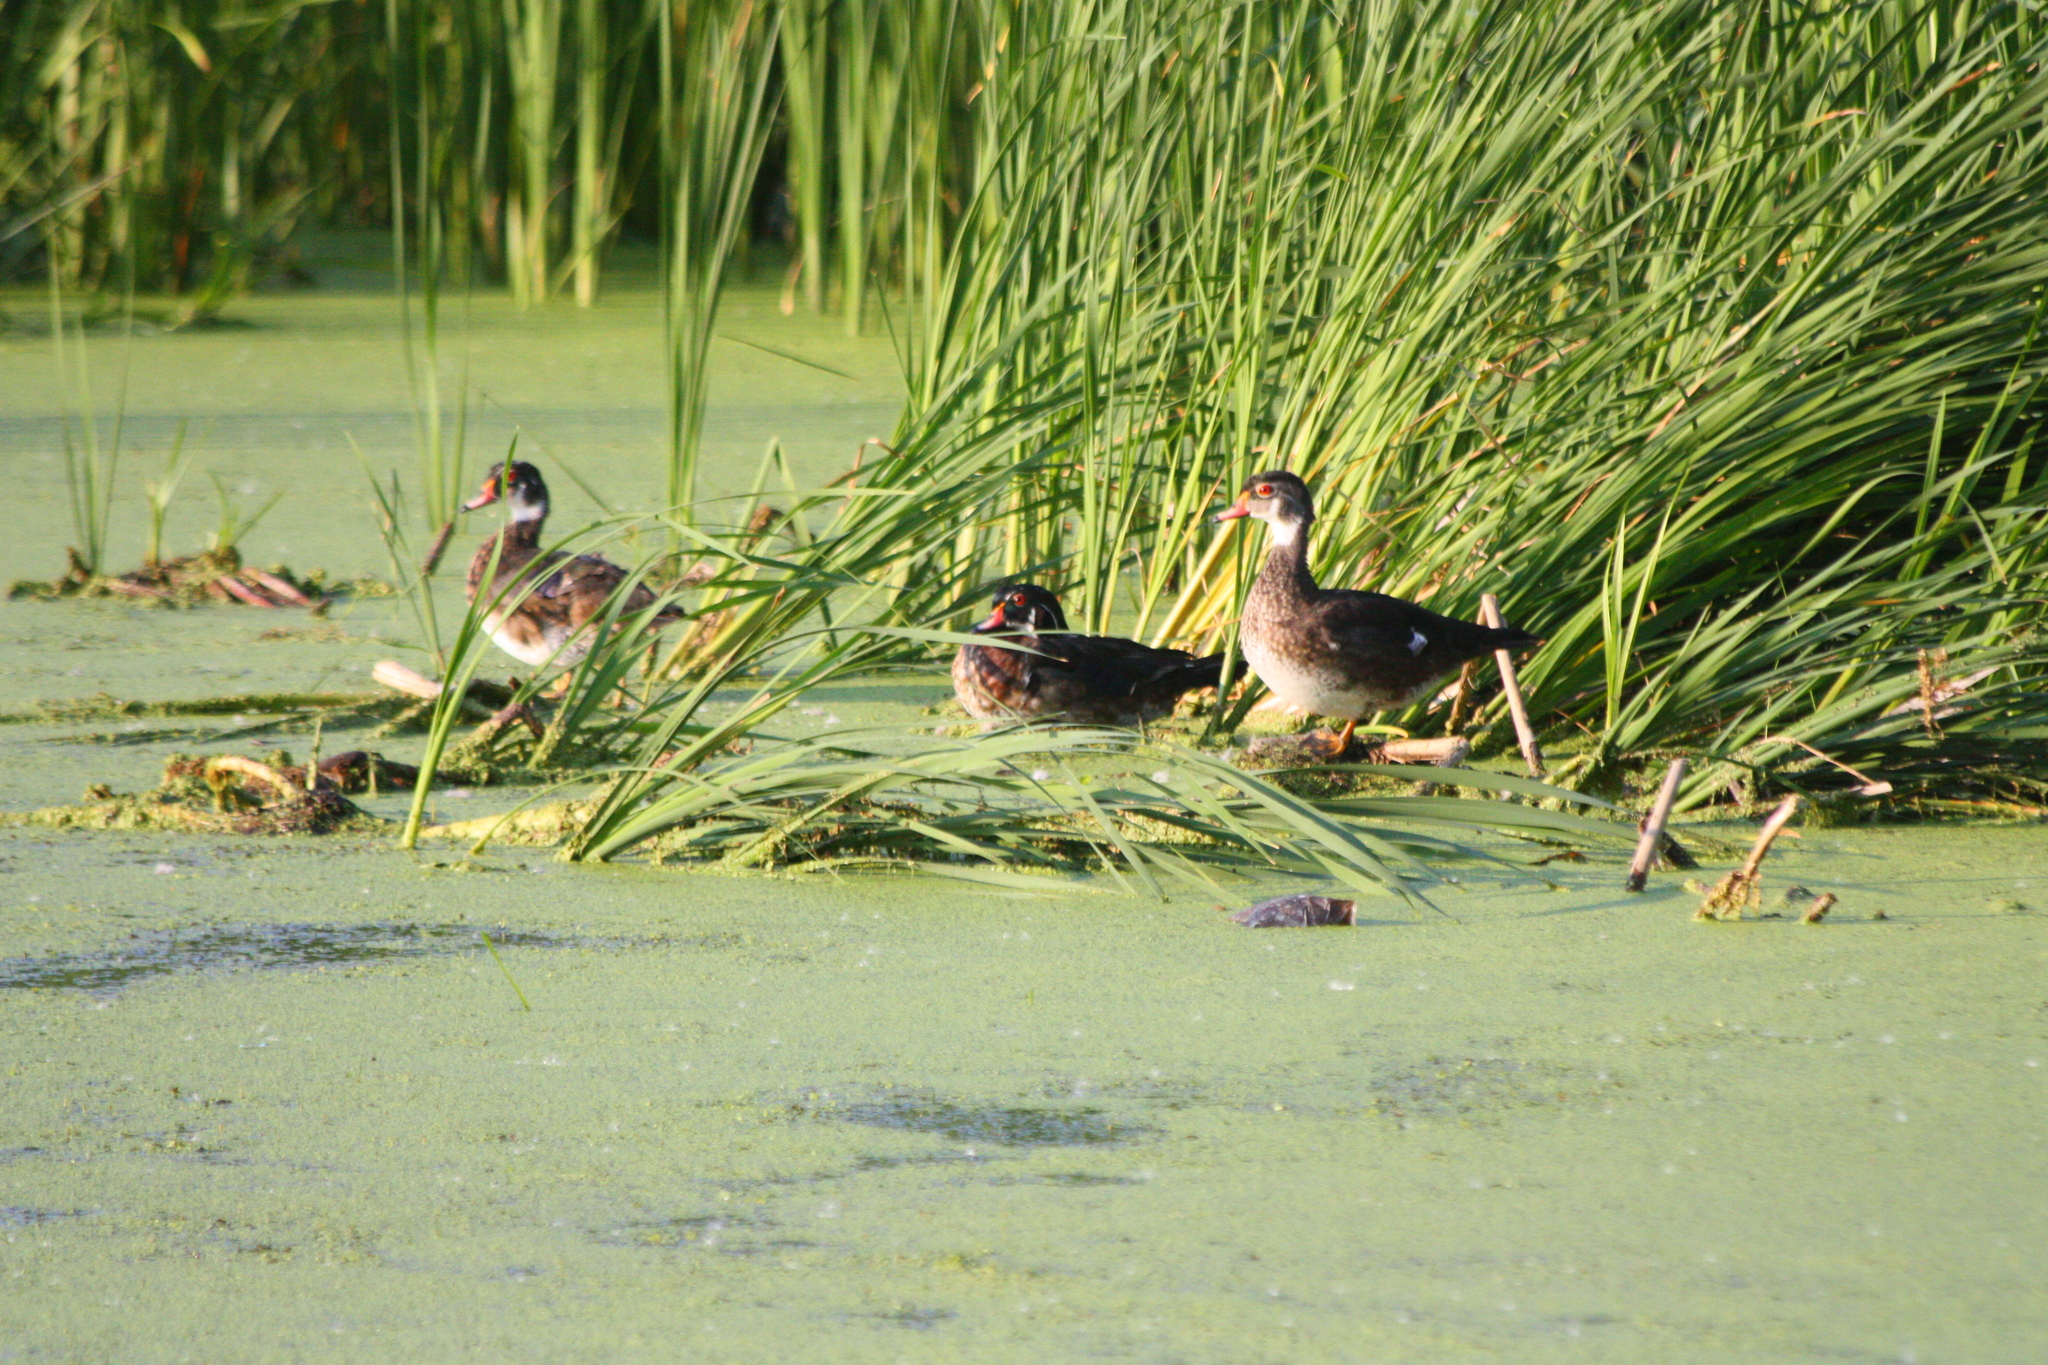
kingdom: Animalia
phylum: Chordata
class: Aves
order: Anseriformes
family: Anatidae
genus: Aix
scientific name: Aix sponsa
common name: Wood duck
